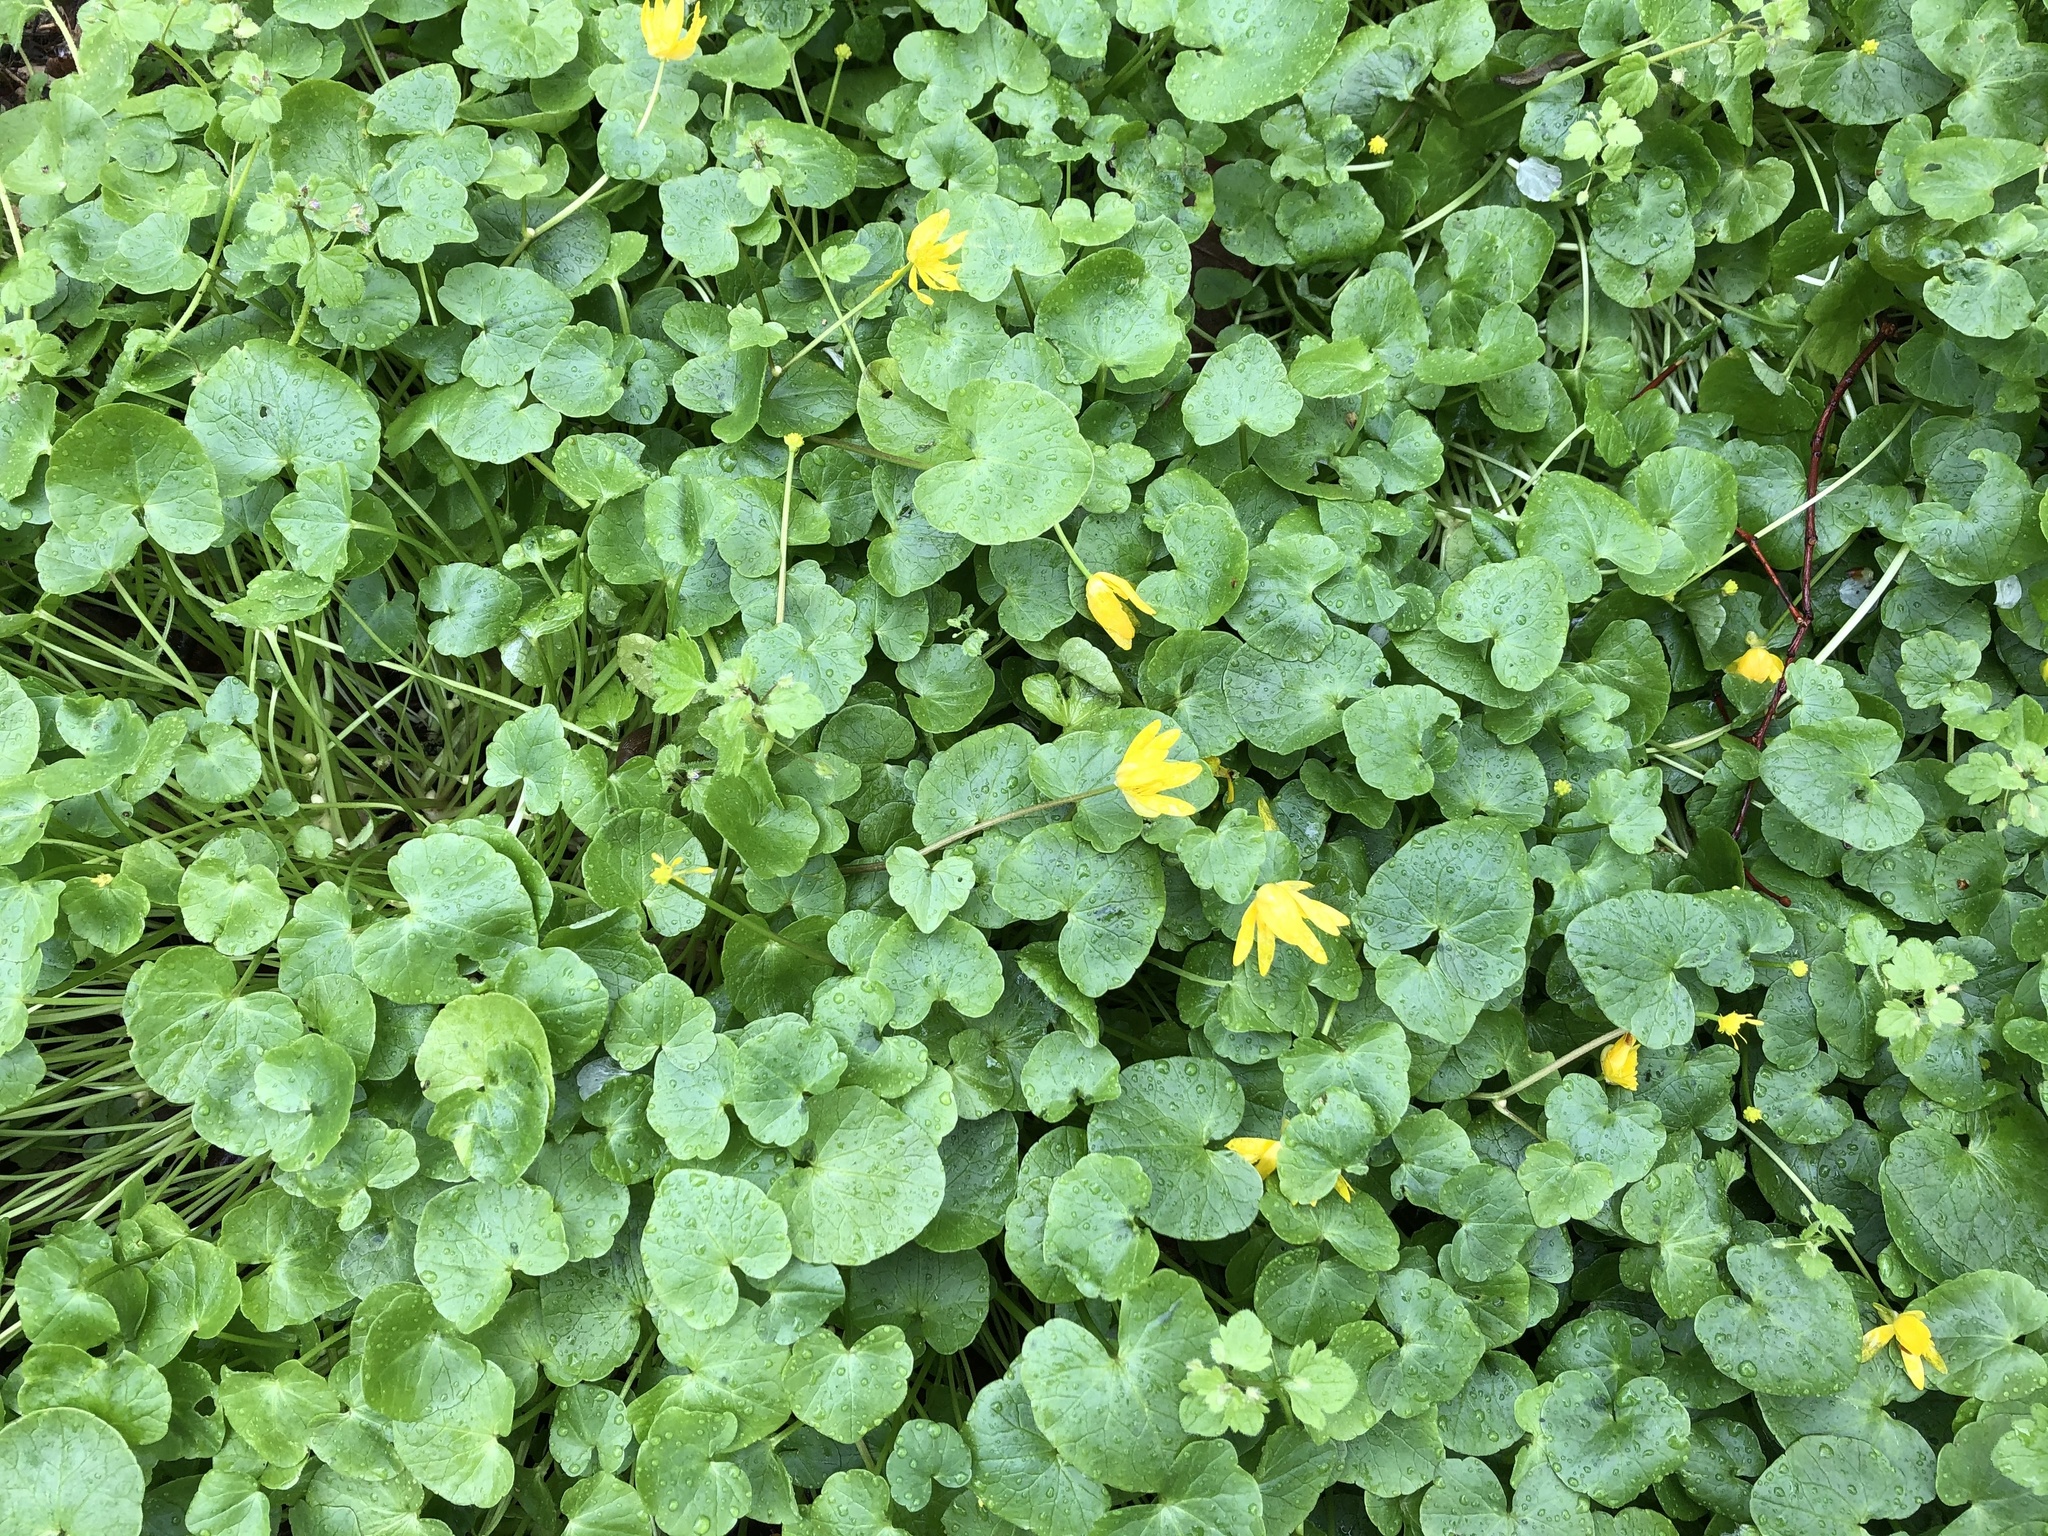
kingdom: Plantae
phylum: Tracheophyta
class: Magnoliopsida
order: Ranunculales
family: Ranunculaceae
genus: Ficaria
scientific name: Ficaria verna
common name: Lesser celandine
